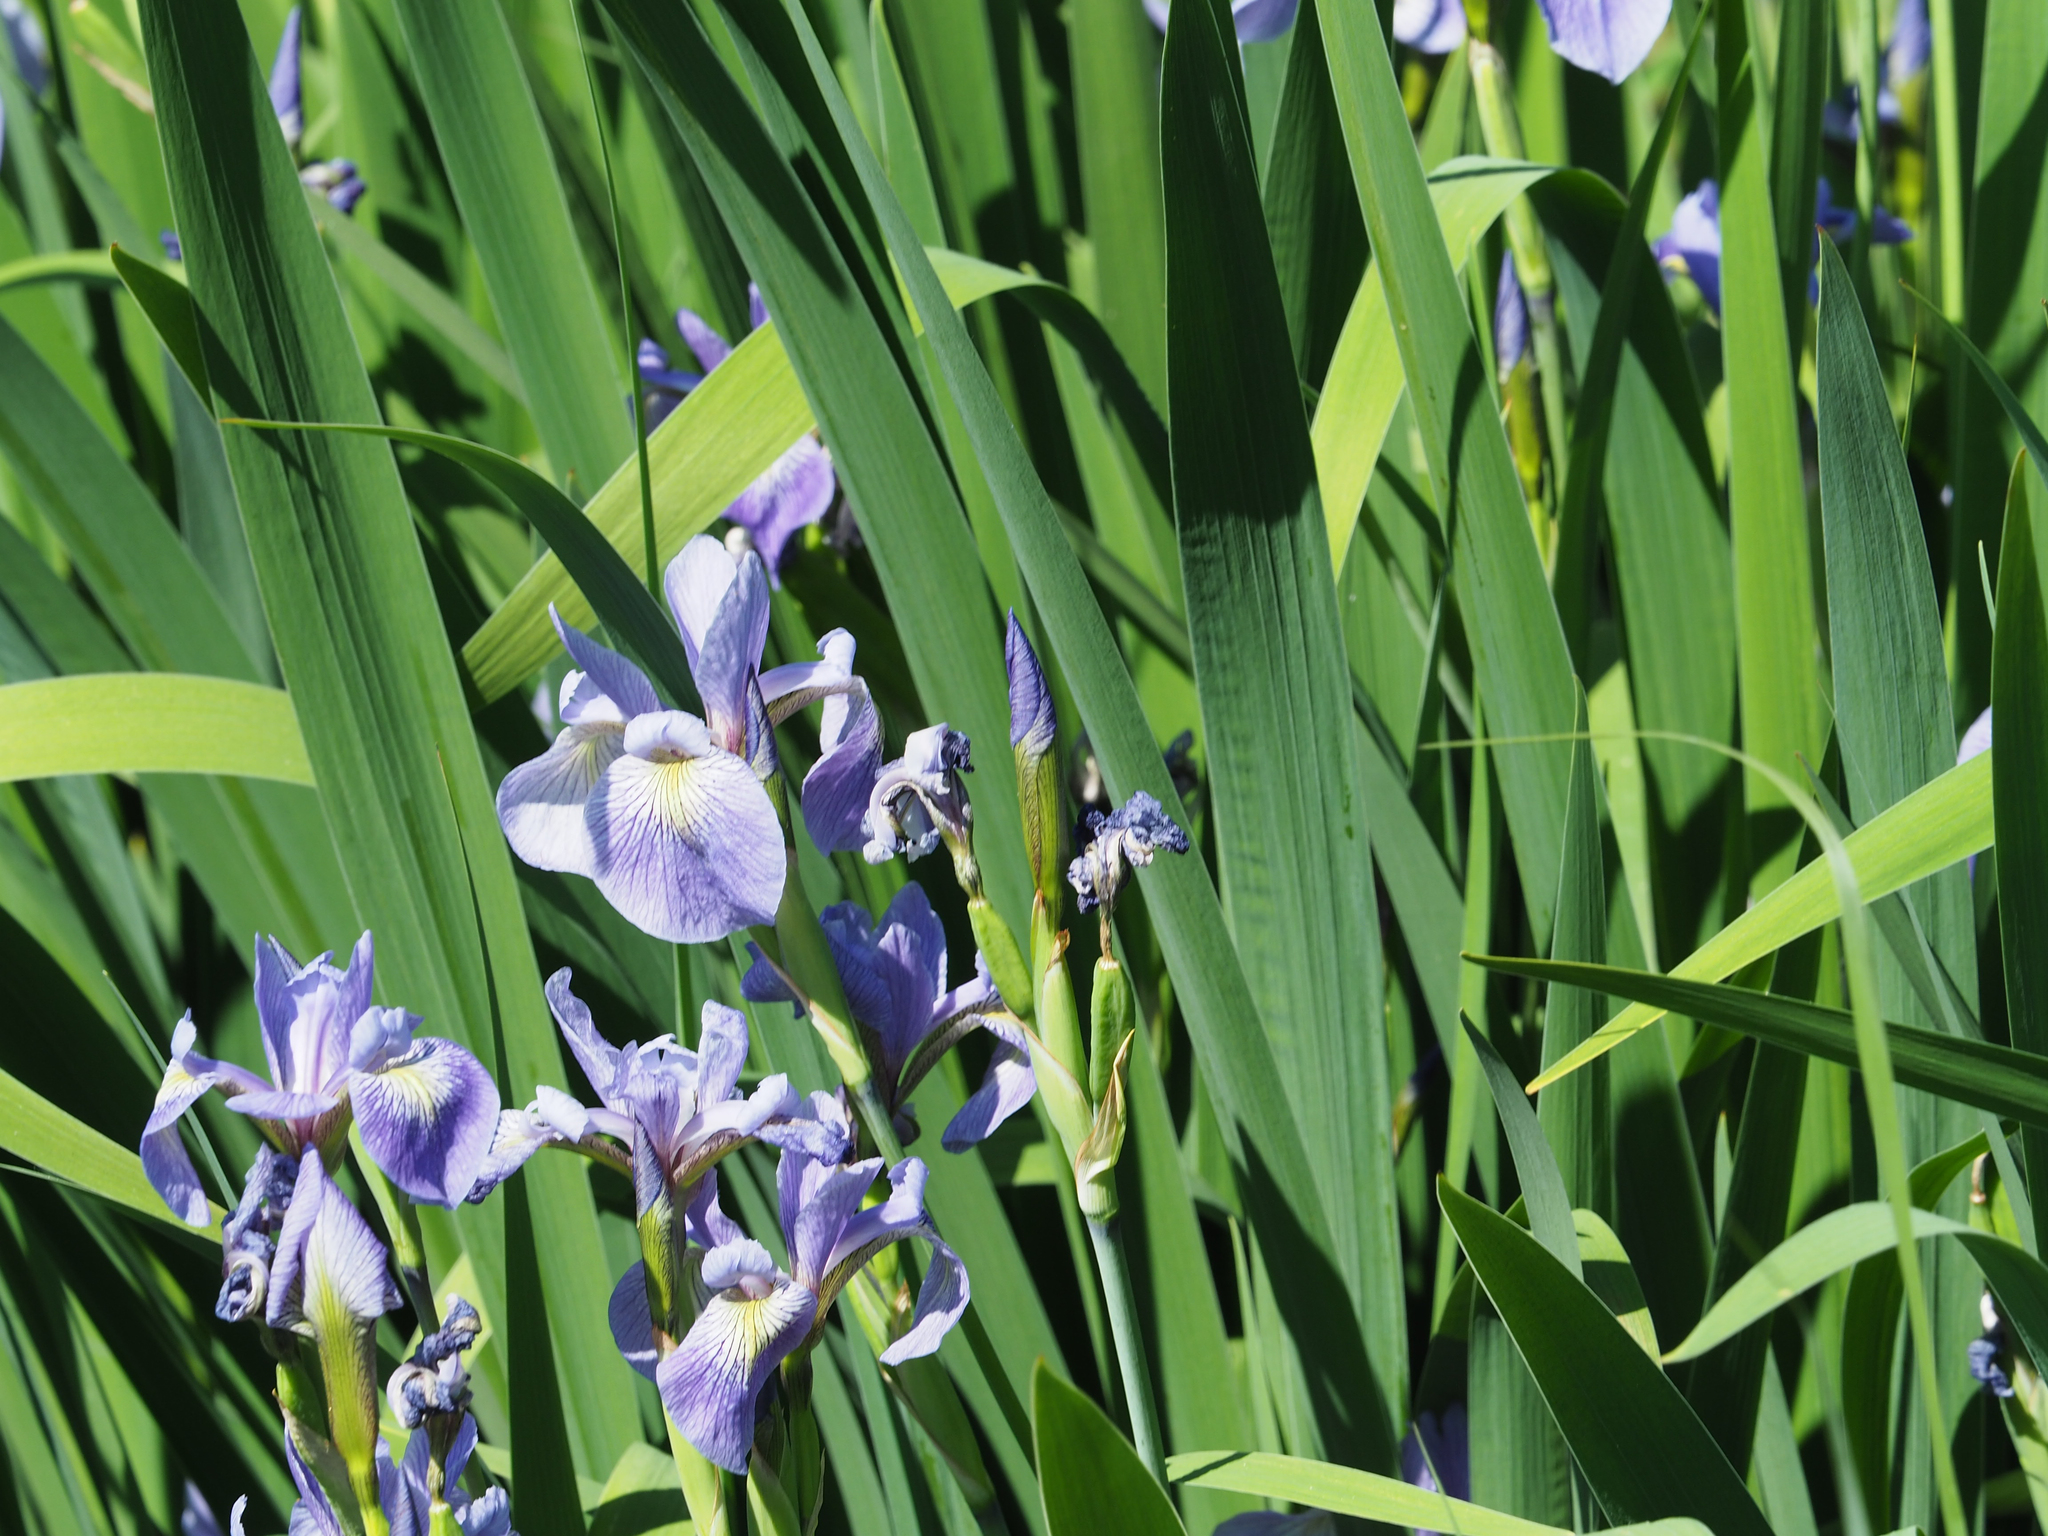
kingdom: Plantae
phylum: Tracheophyta
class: Liliopsida
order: Asparagales
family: Iridaceae
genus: Iris
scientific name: Iris virginica
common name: Southern blue flag
